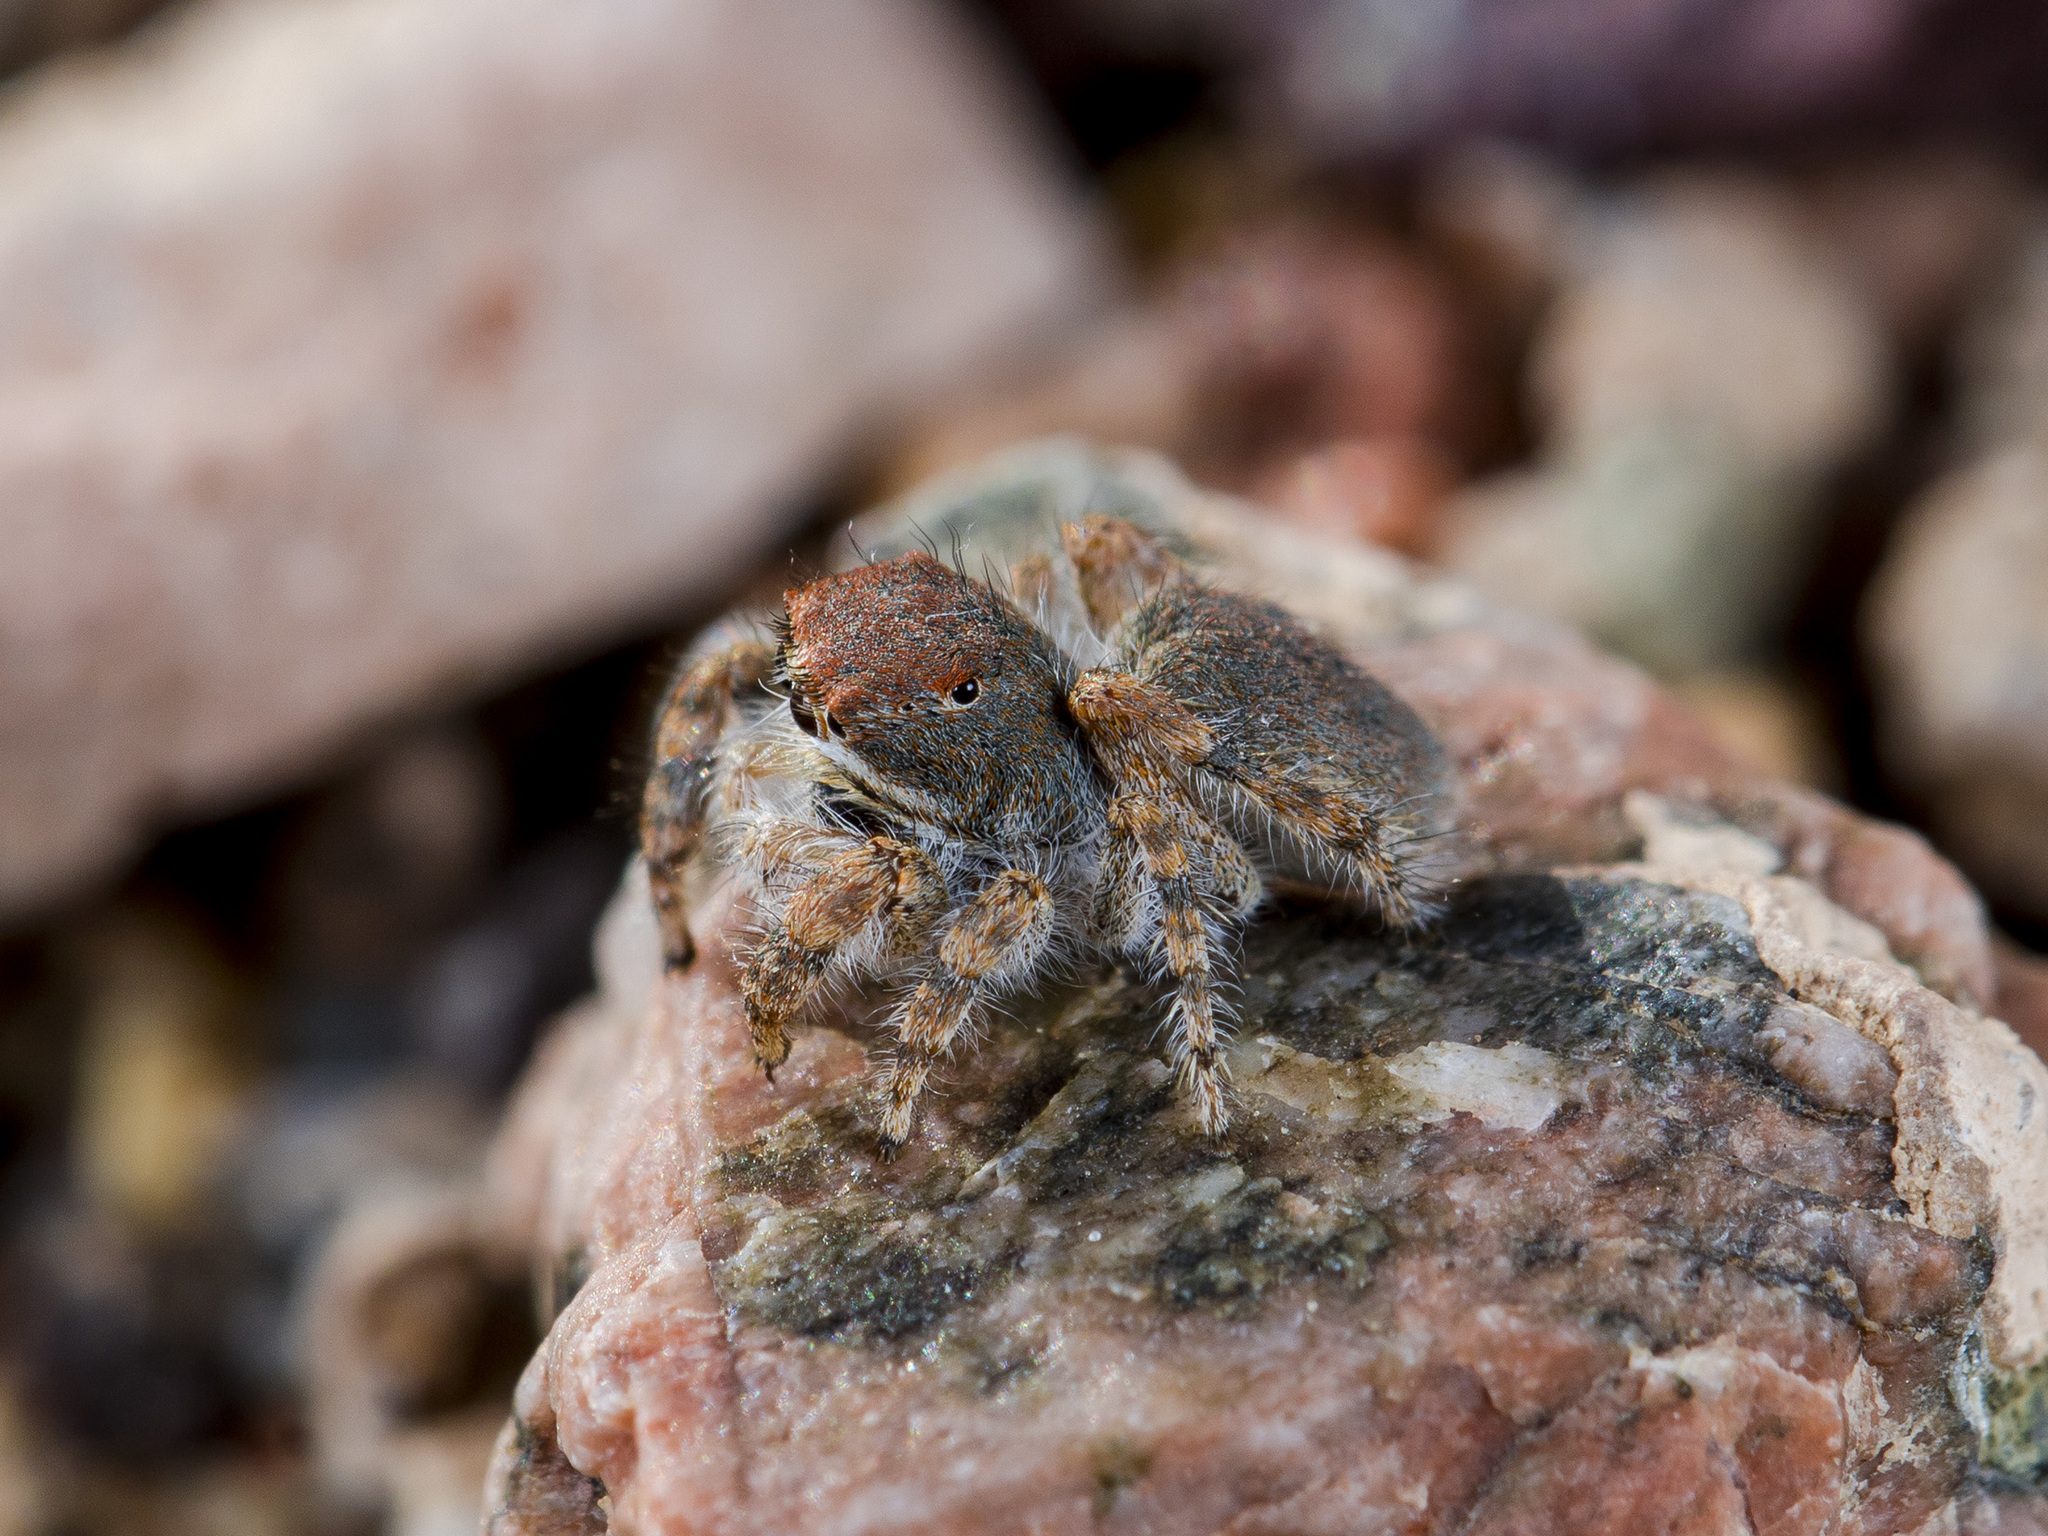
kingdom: Animalia
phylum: Arthropoda
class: Arachnida
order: Araneae
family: Salticidae
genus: Yllenus
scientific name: Yllenus zyuzini
